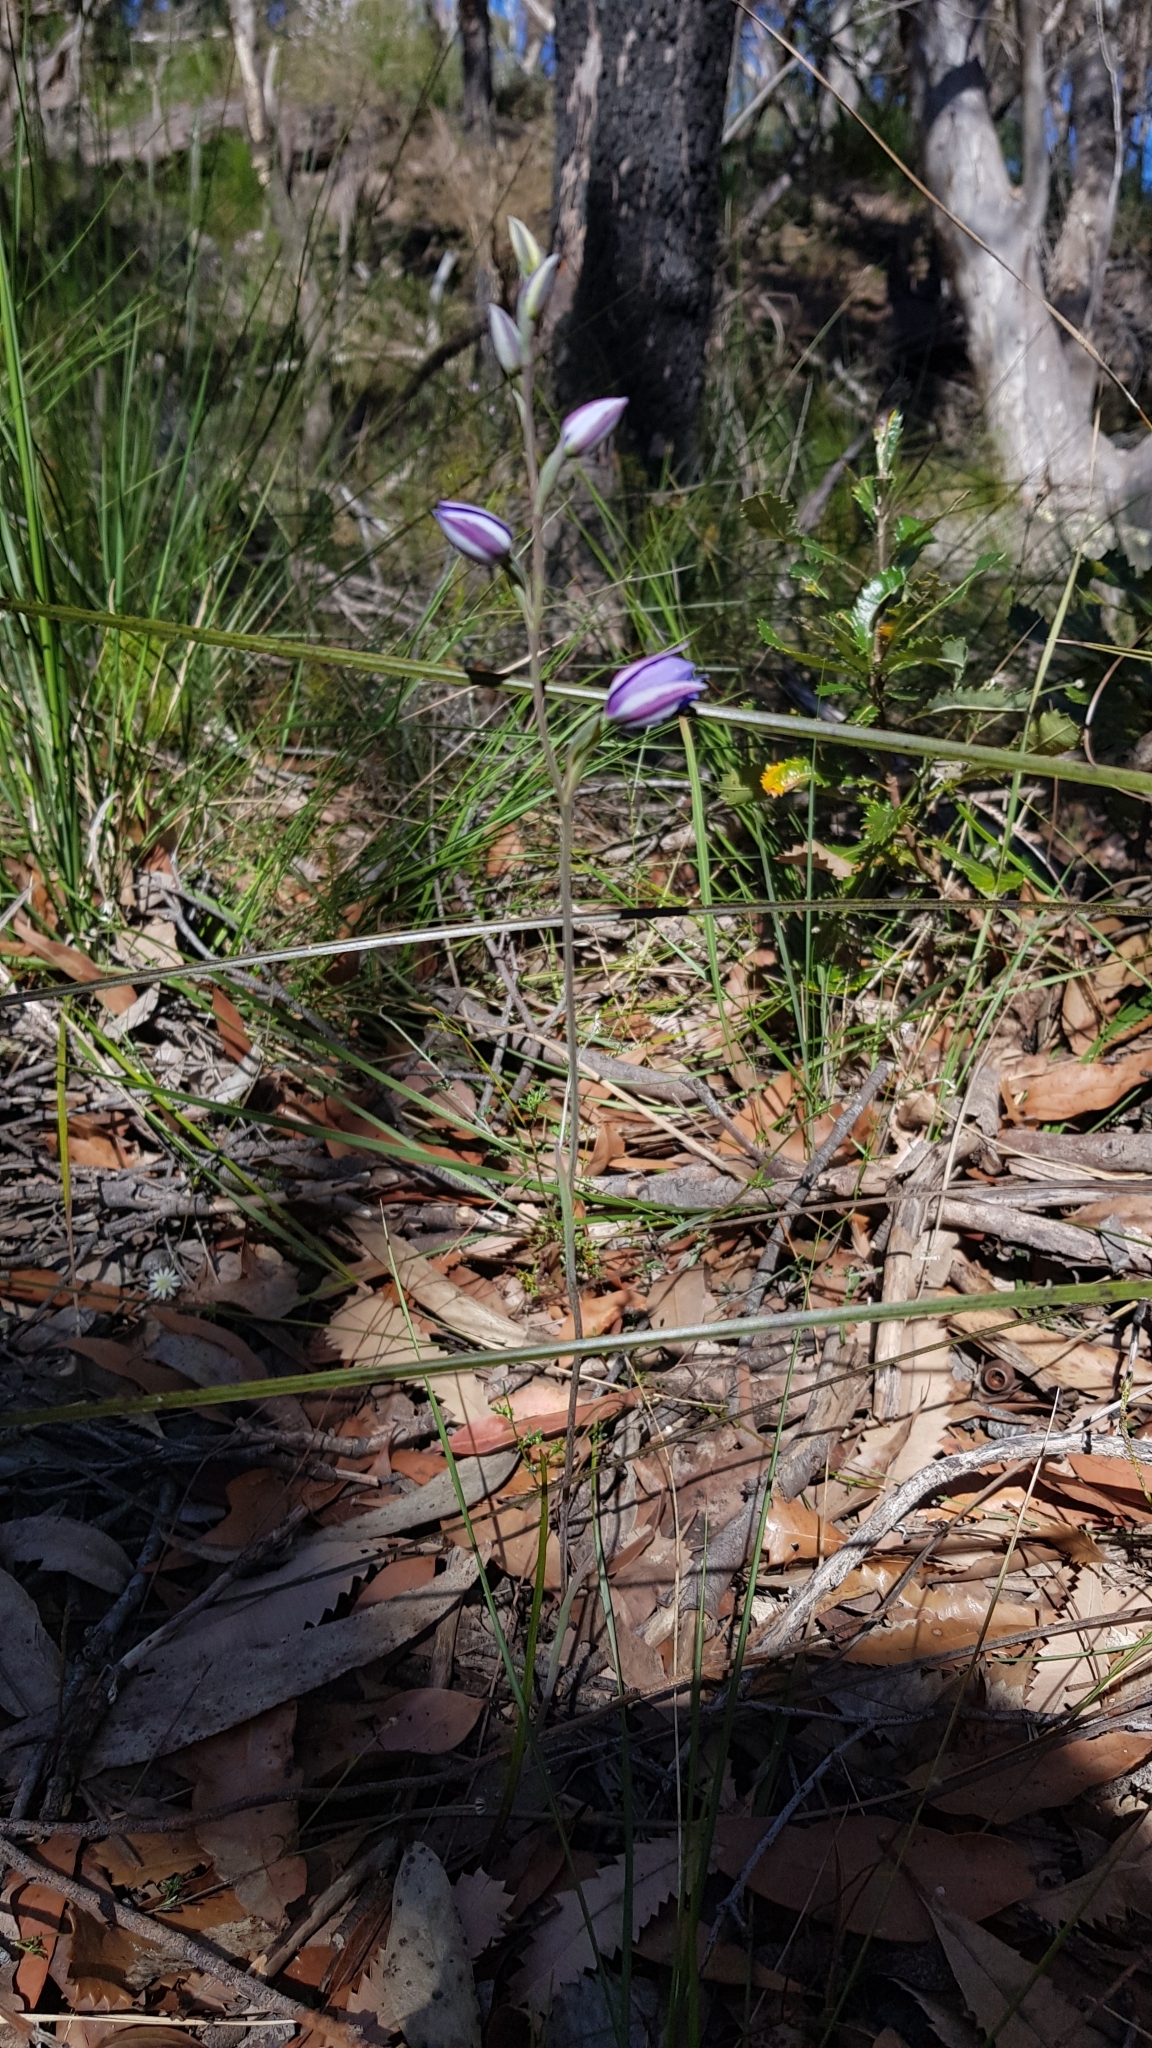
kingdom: Plantae
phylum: Tracheophyta
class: Liliopsida
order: Asparagales
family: Orchidaceae
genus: Thelymitra
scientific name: Thelymitra ixioides
